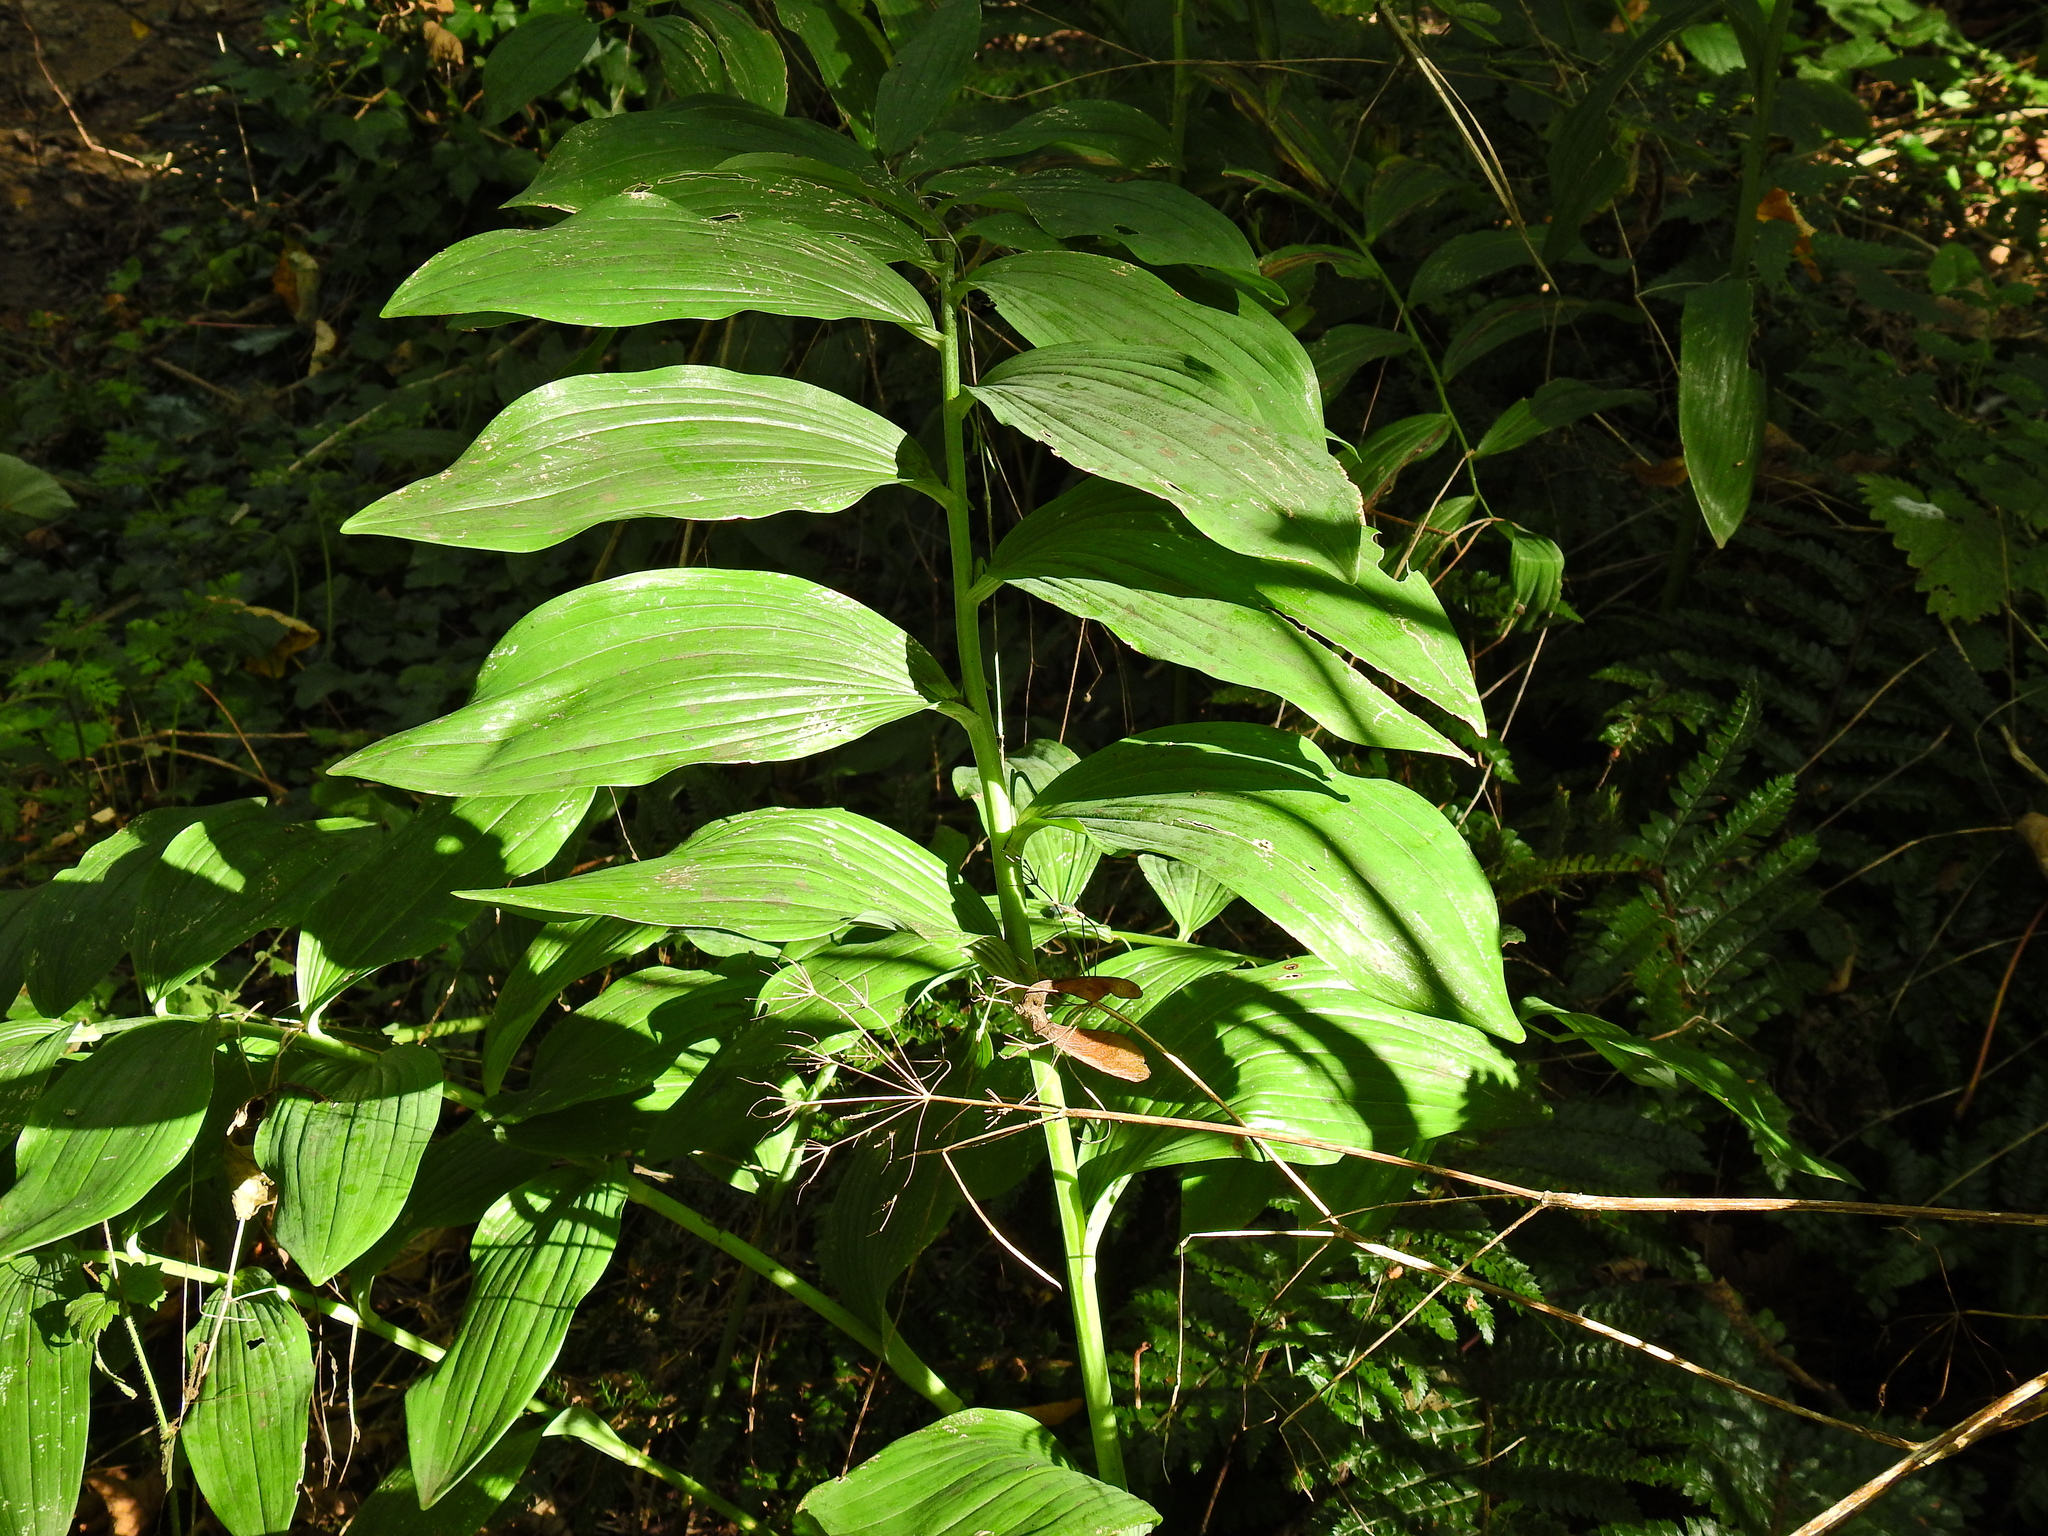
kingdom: Plantae
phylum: Tracheophyta
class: Liliopsida
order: Asparagales
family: Asparagaceae
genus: Polygonatum
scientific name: Polygonatum hybridum
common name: Garden solomon's-seal
